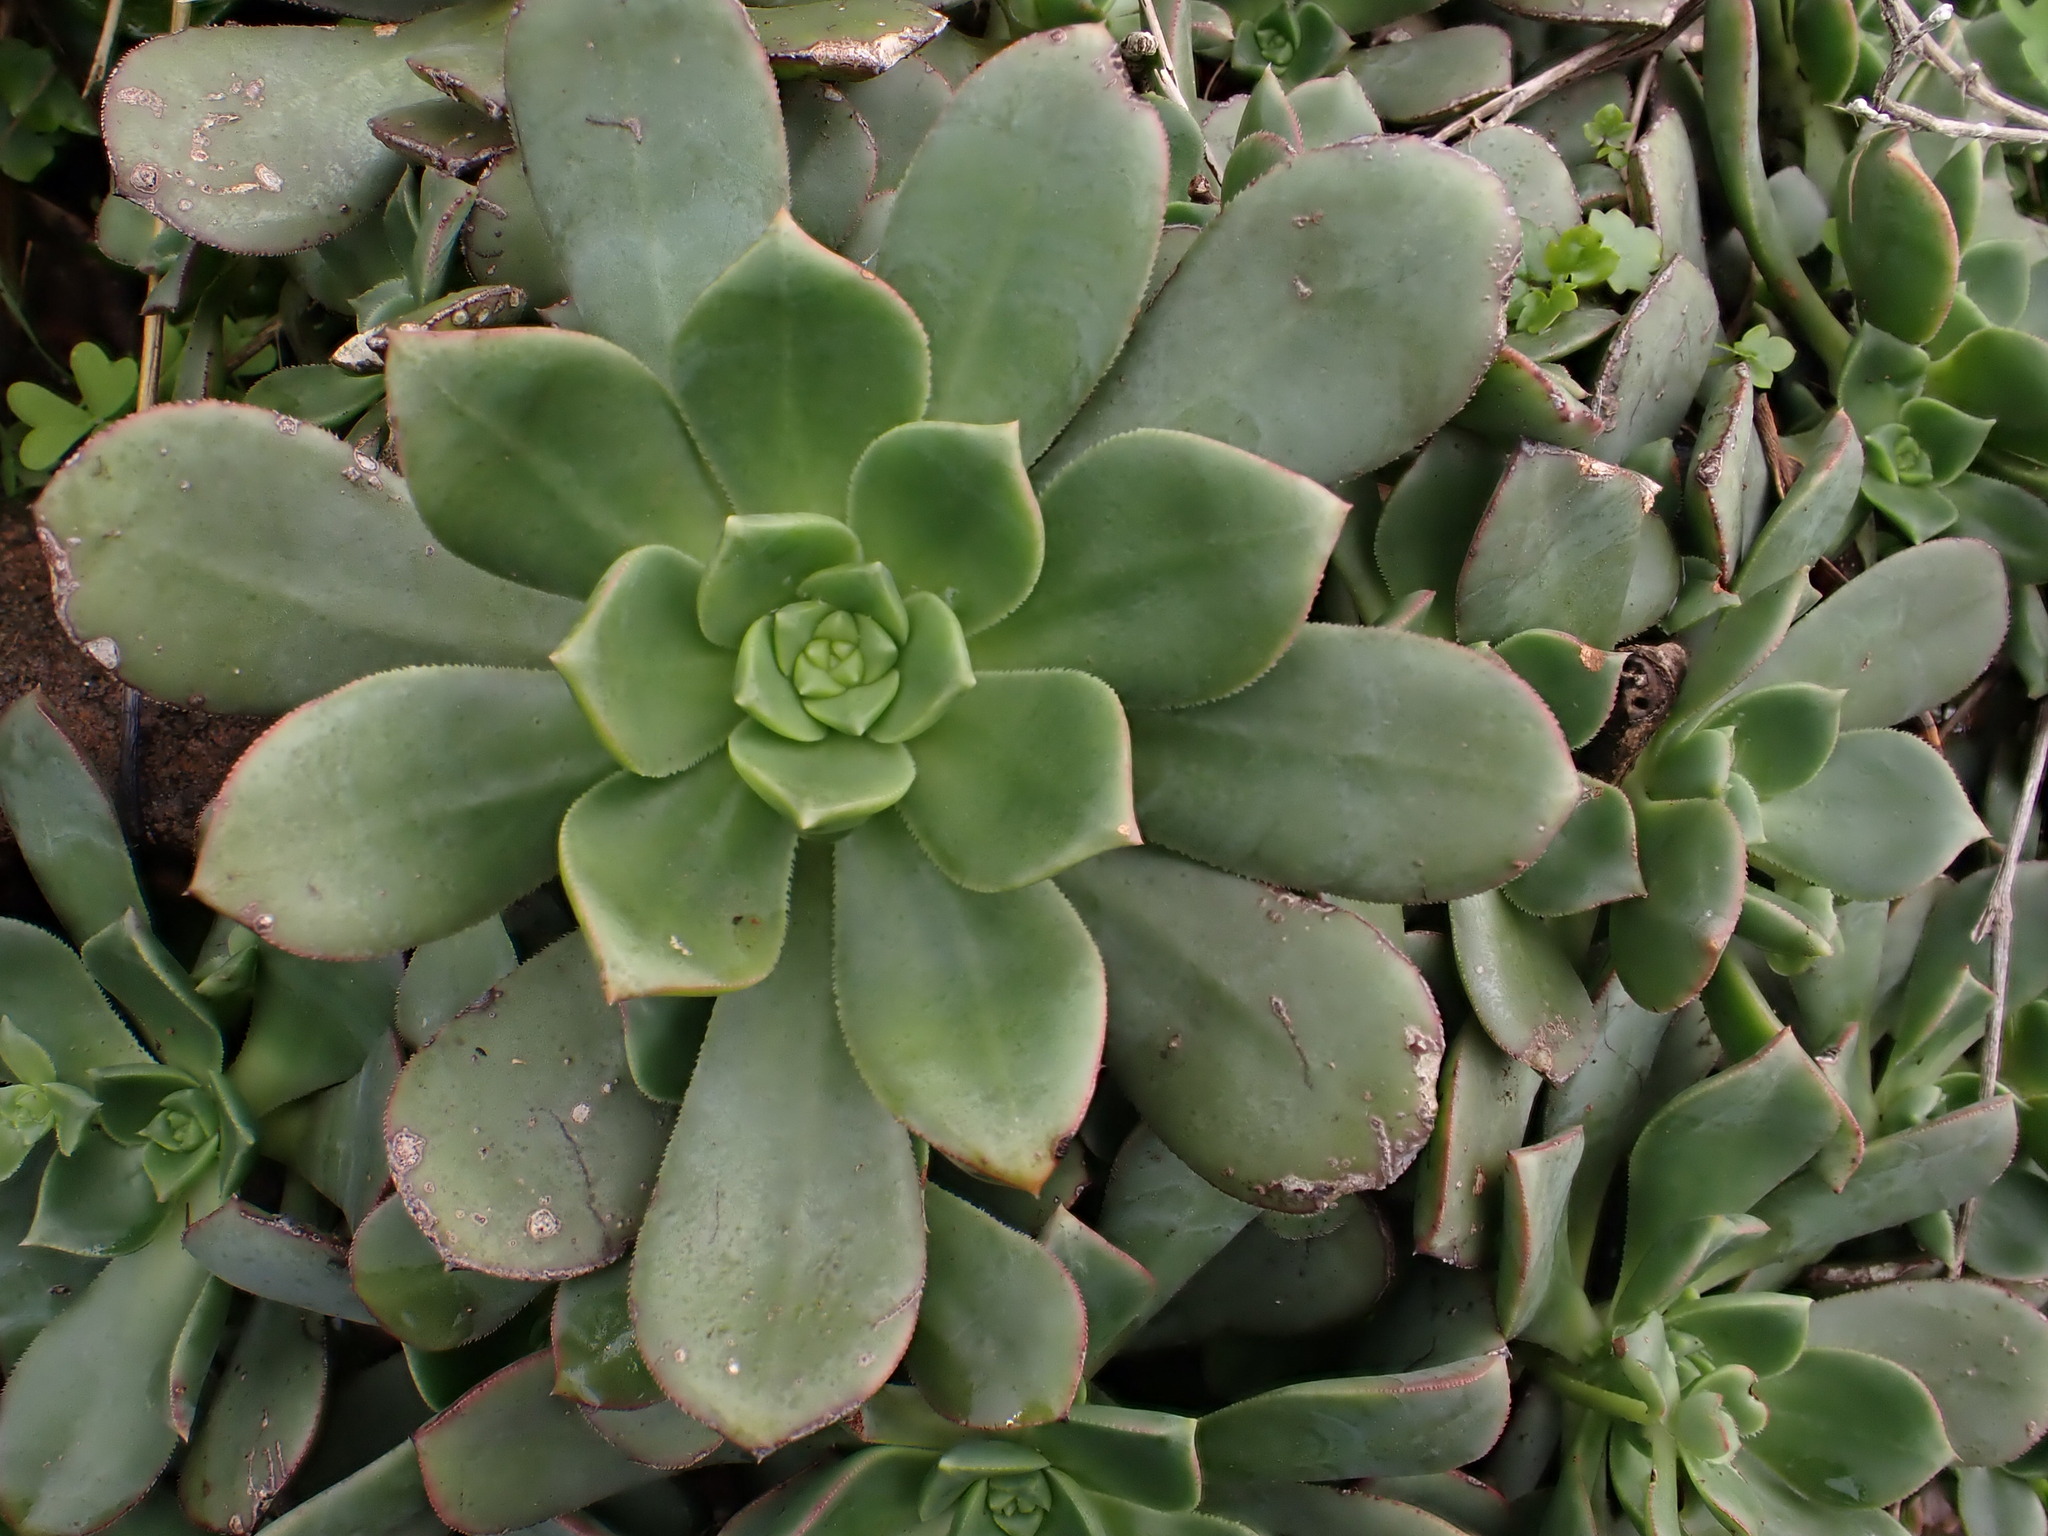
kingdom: Plantae
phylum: Tracheophyta
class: Magnoliopsida
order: Saxifragales
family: Crassulaceae
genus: Aeonium
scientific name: Aeonium urbicum
